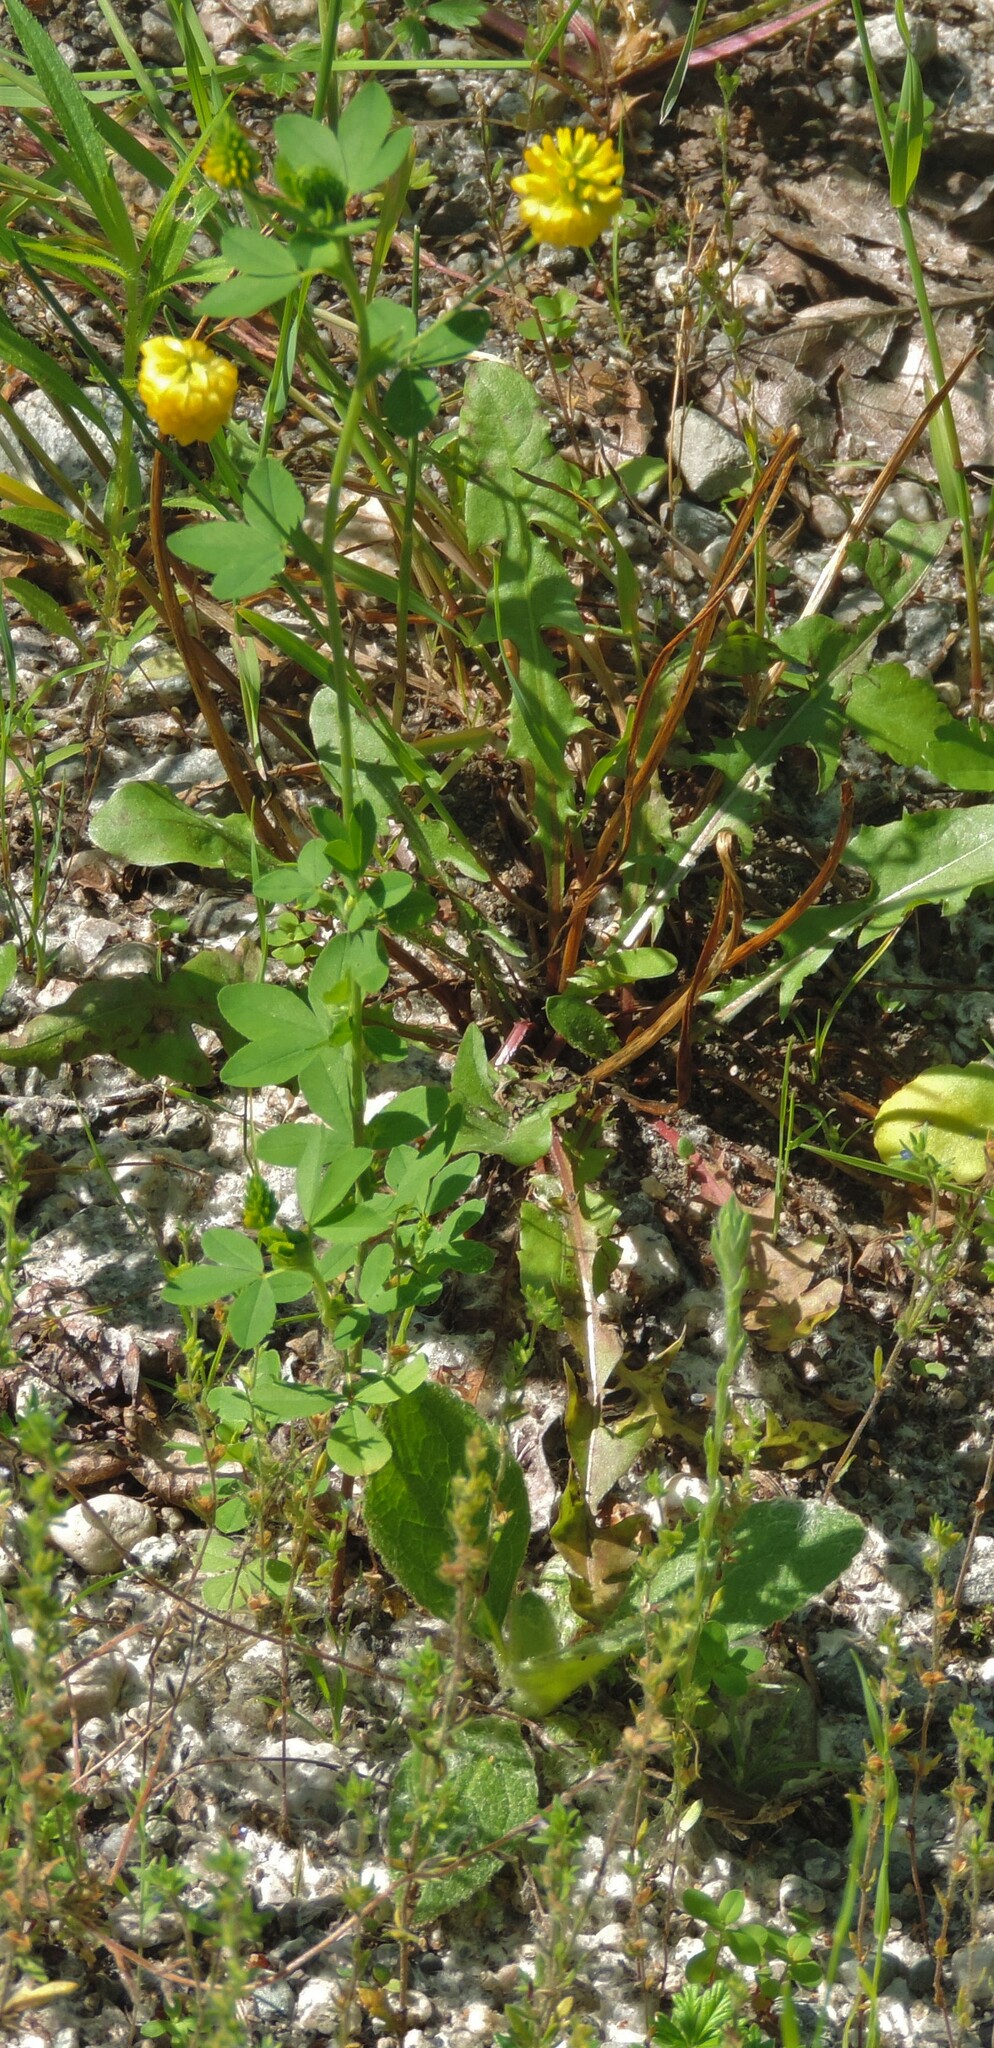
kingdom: Plantae
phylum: Tracheophyta
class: Magnoliopsida
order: Fabales
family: Fabaceae
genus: Trifolium
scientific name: Trifolium aureum
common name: Golden clover
